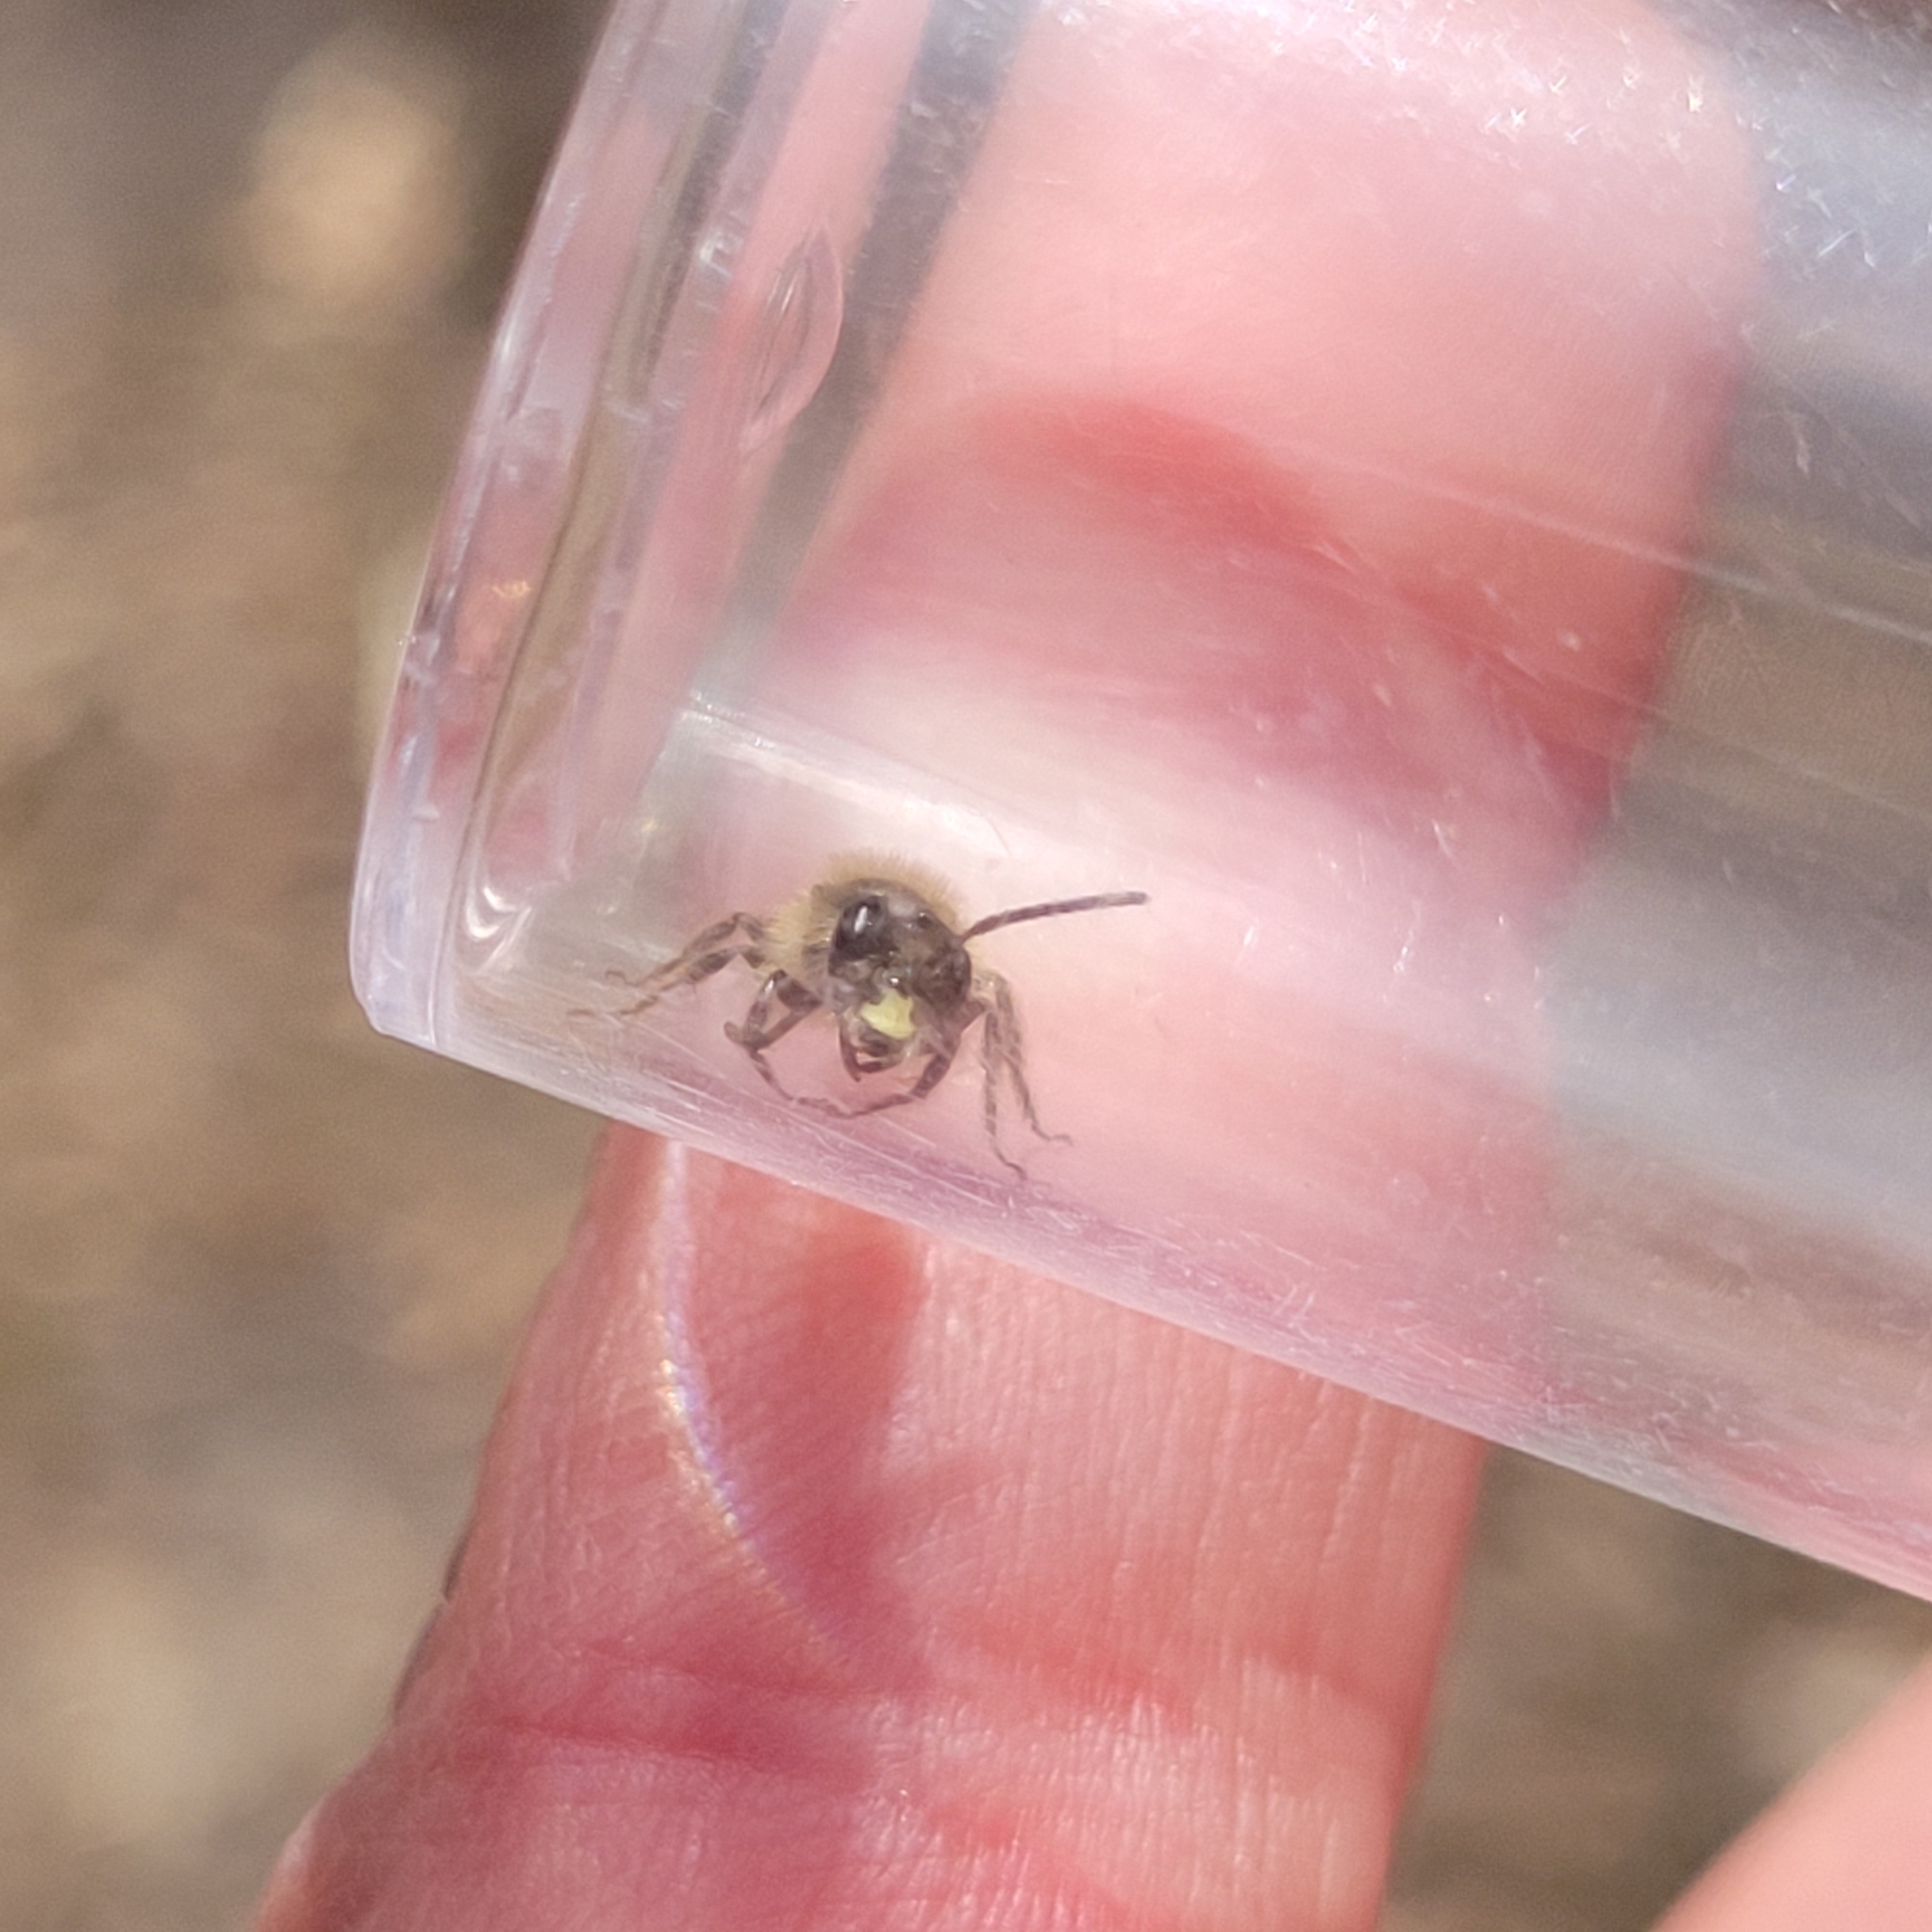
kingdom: Animalia
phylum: Arthropoda
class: Insecta
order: Hymenoptera
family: Andrenidae
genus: Andrena
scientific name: Andrena bradleyi
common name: Bradley's mining bee
